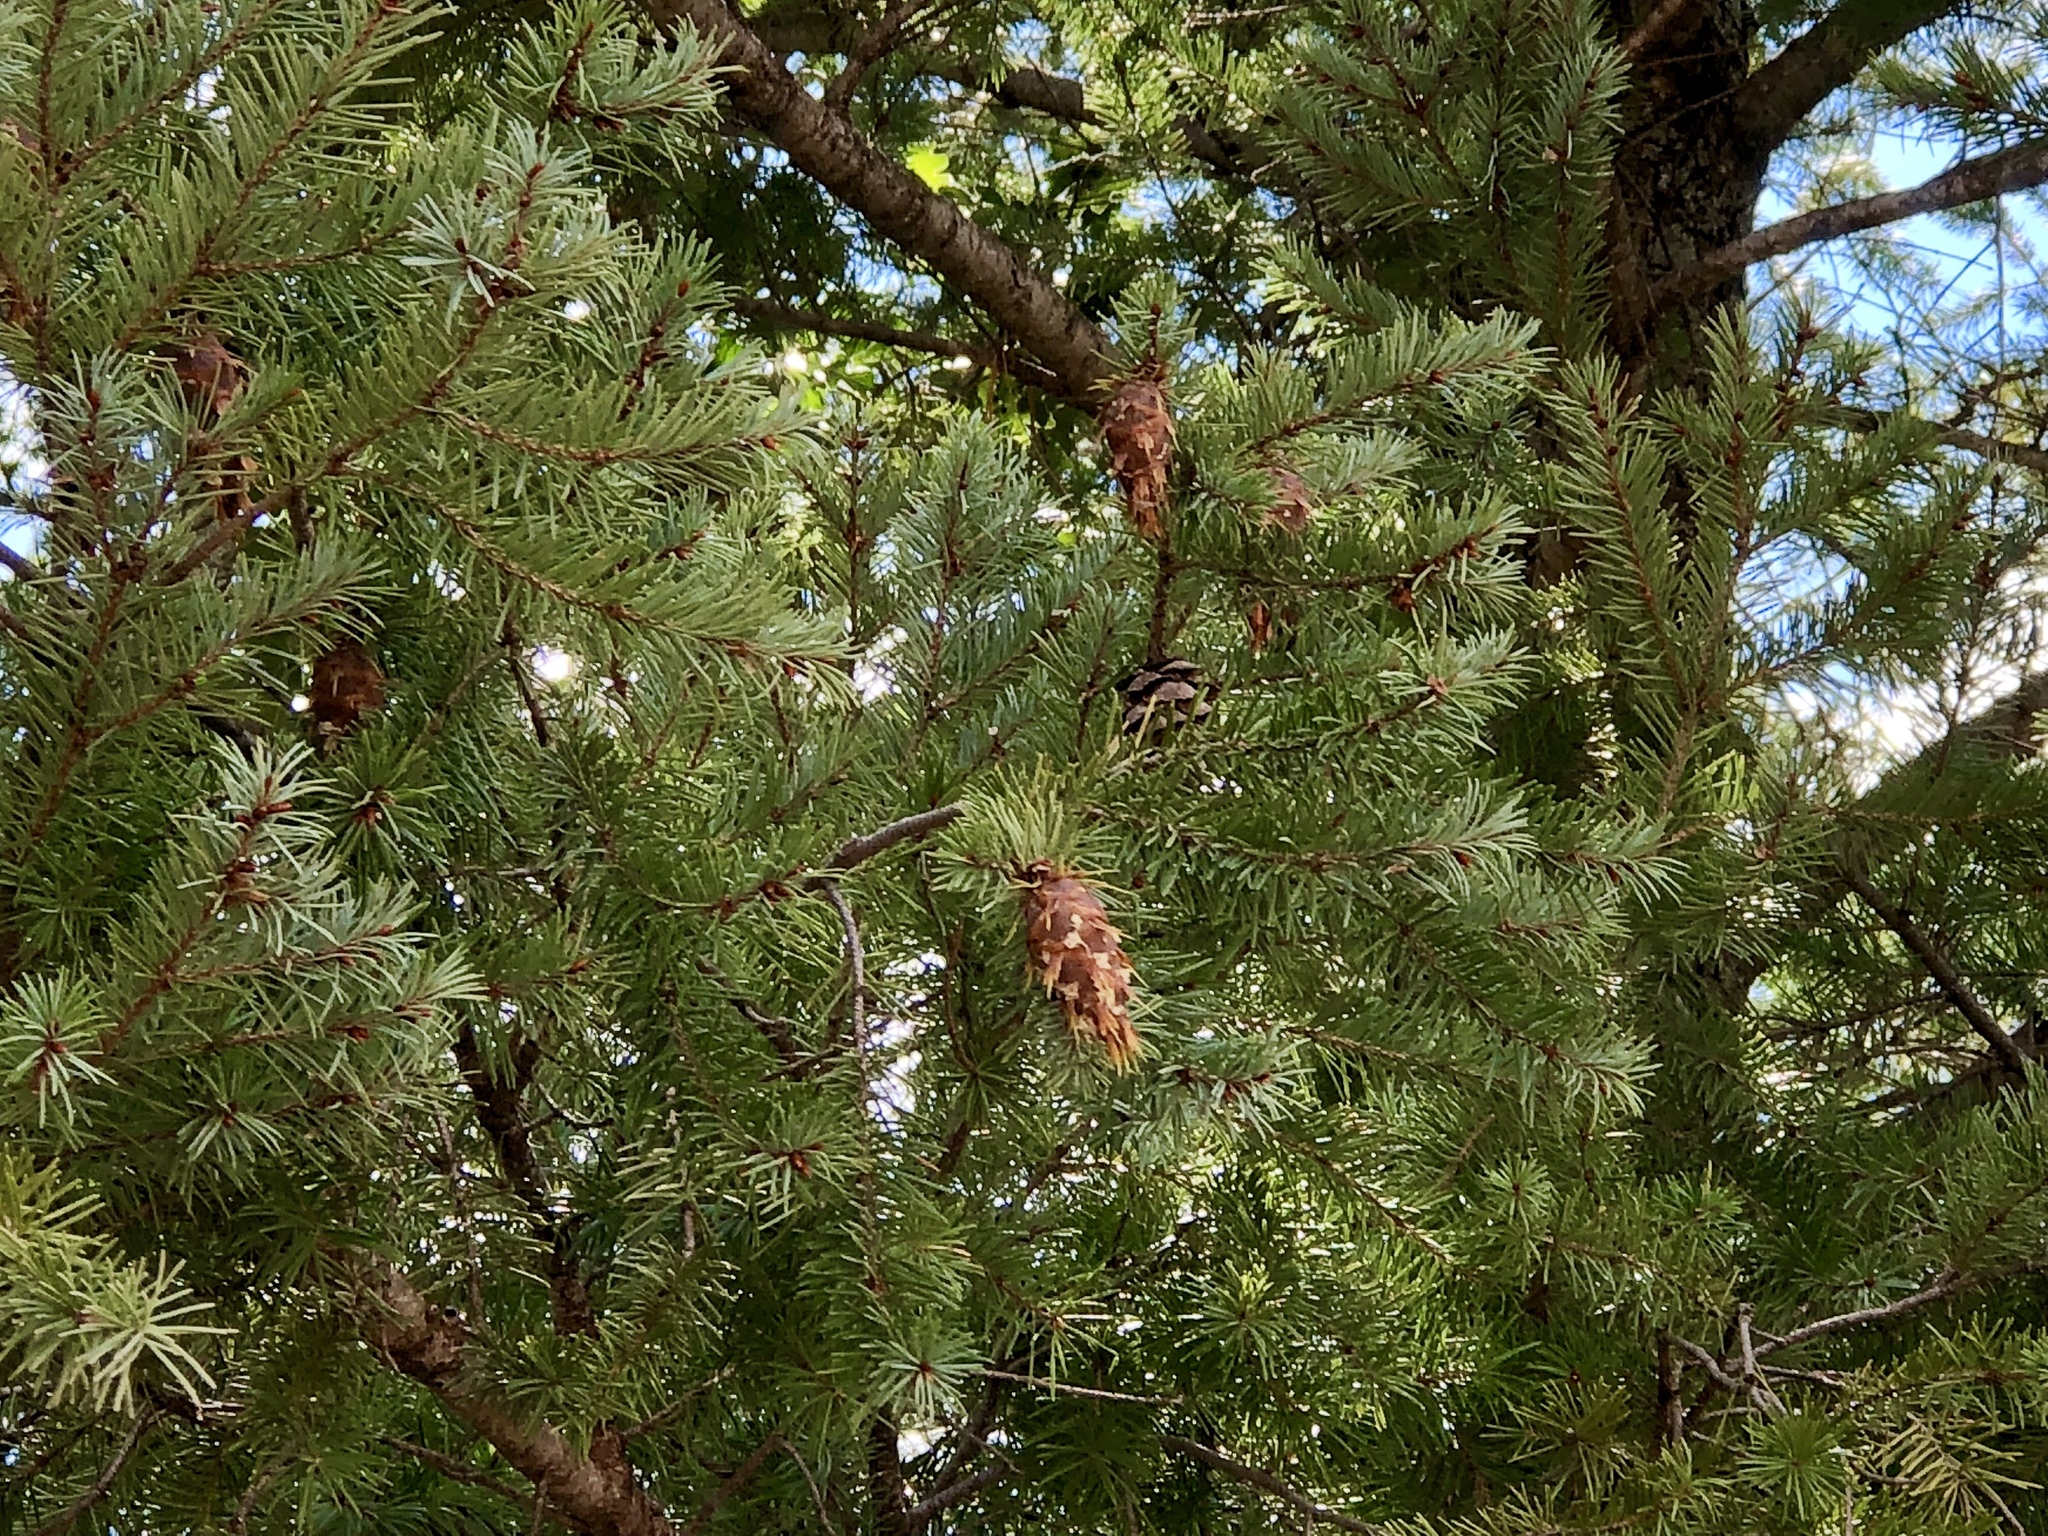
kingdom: Plantae
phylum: Tracheophyta
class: Pinopsida
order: Pinales
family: Pinaceae
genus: Pseudotsuga
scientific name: Pseudotsuga menziesii
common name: Douglas fir
